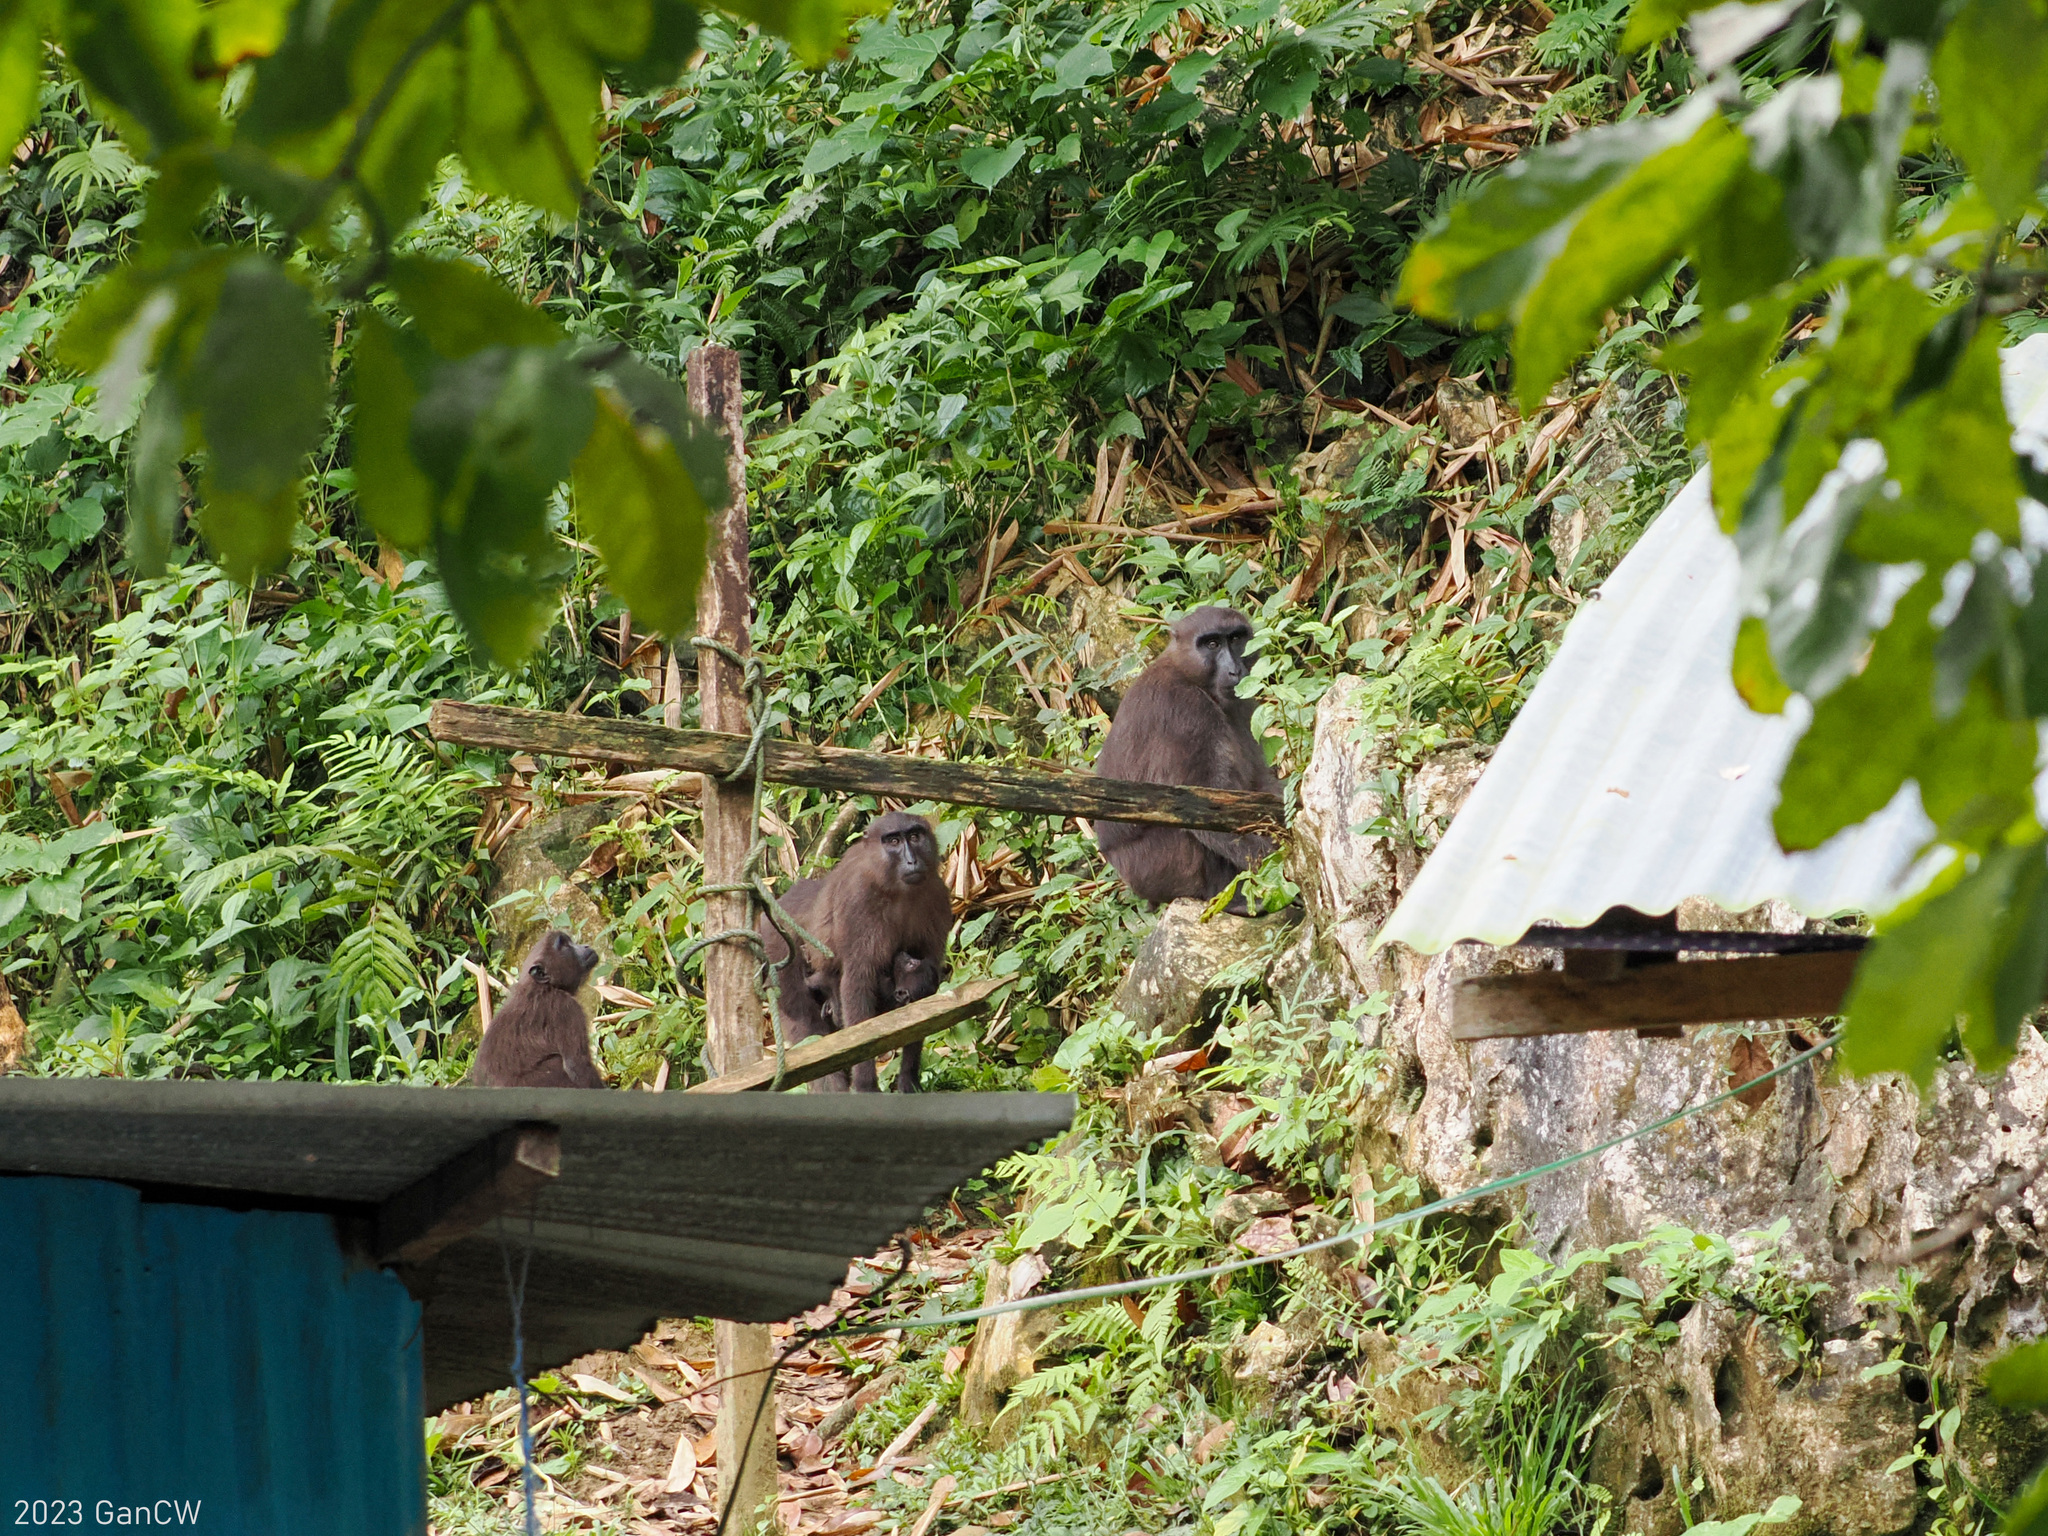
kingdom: Animalia
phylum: Chordata
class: Mammalia
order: Primates
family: Cercopithecidae
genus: Macaca
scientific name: Macaca maura
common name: Moor macaque
